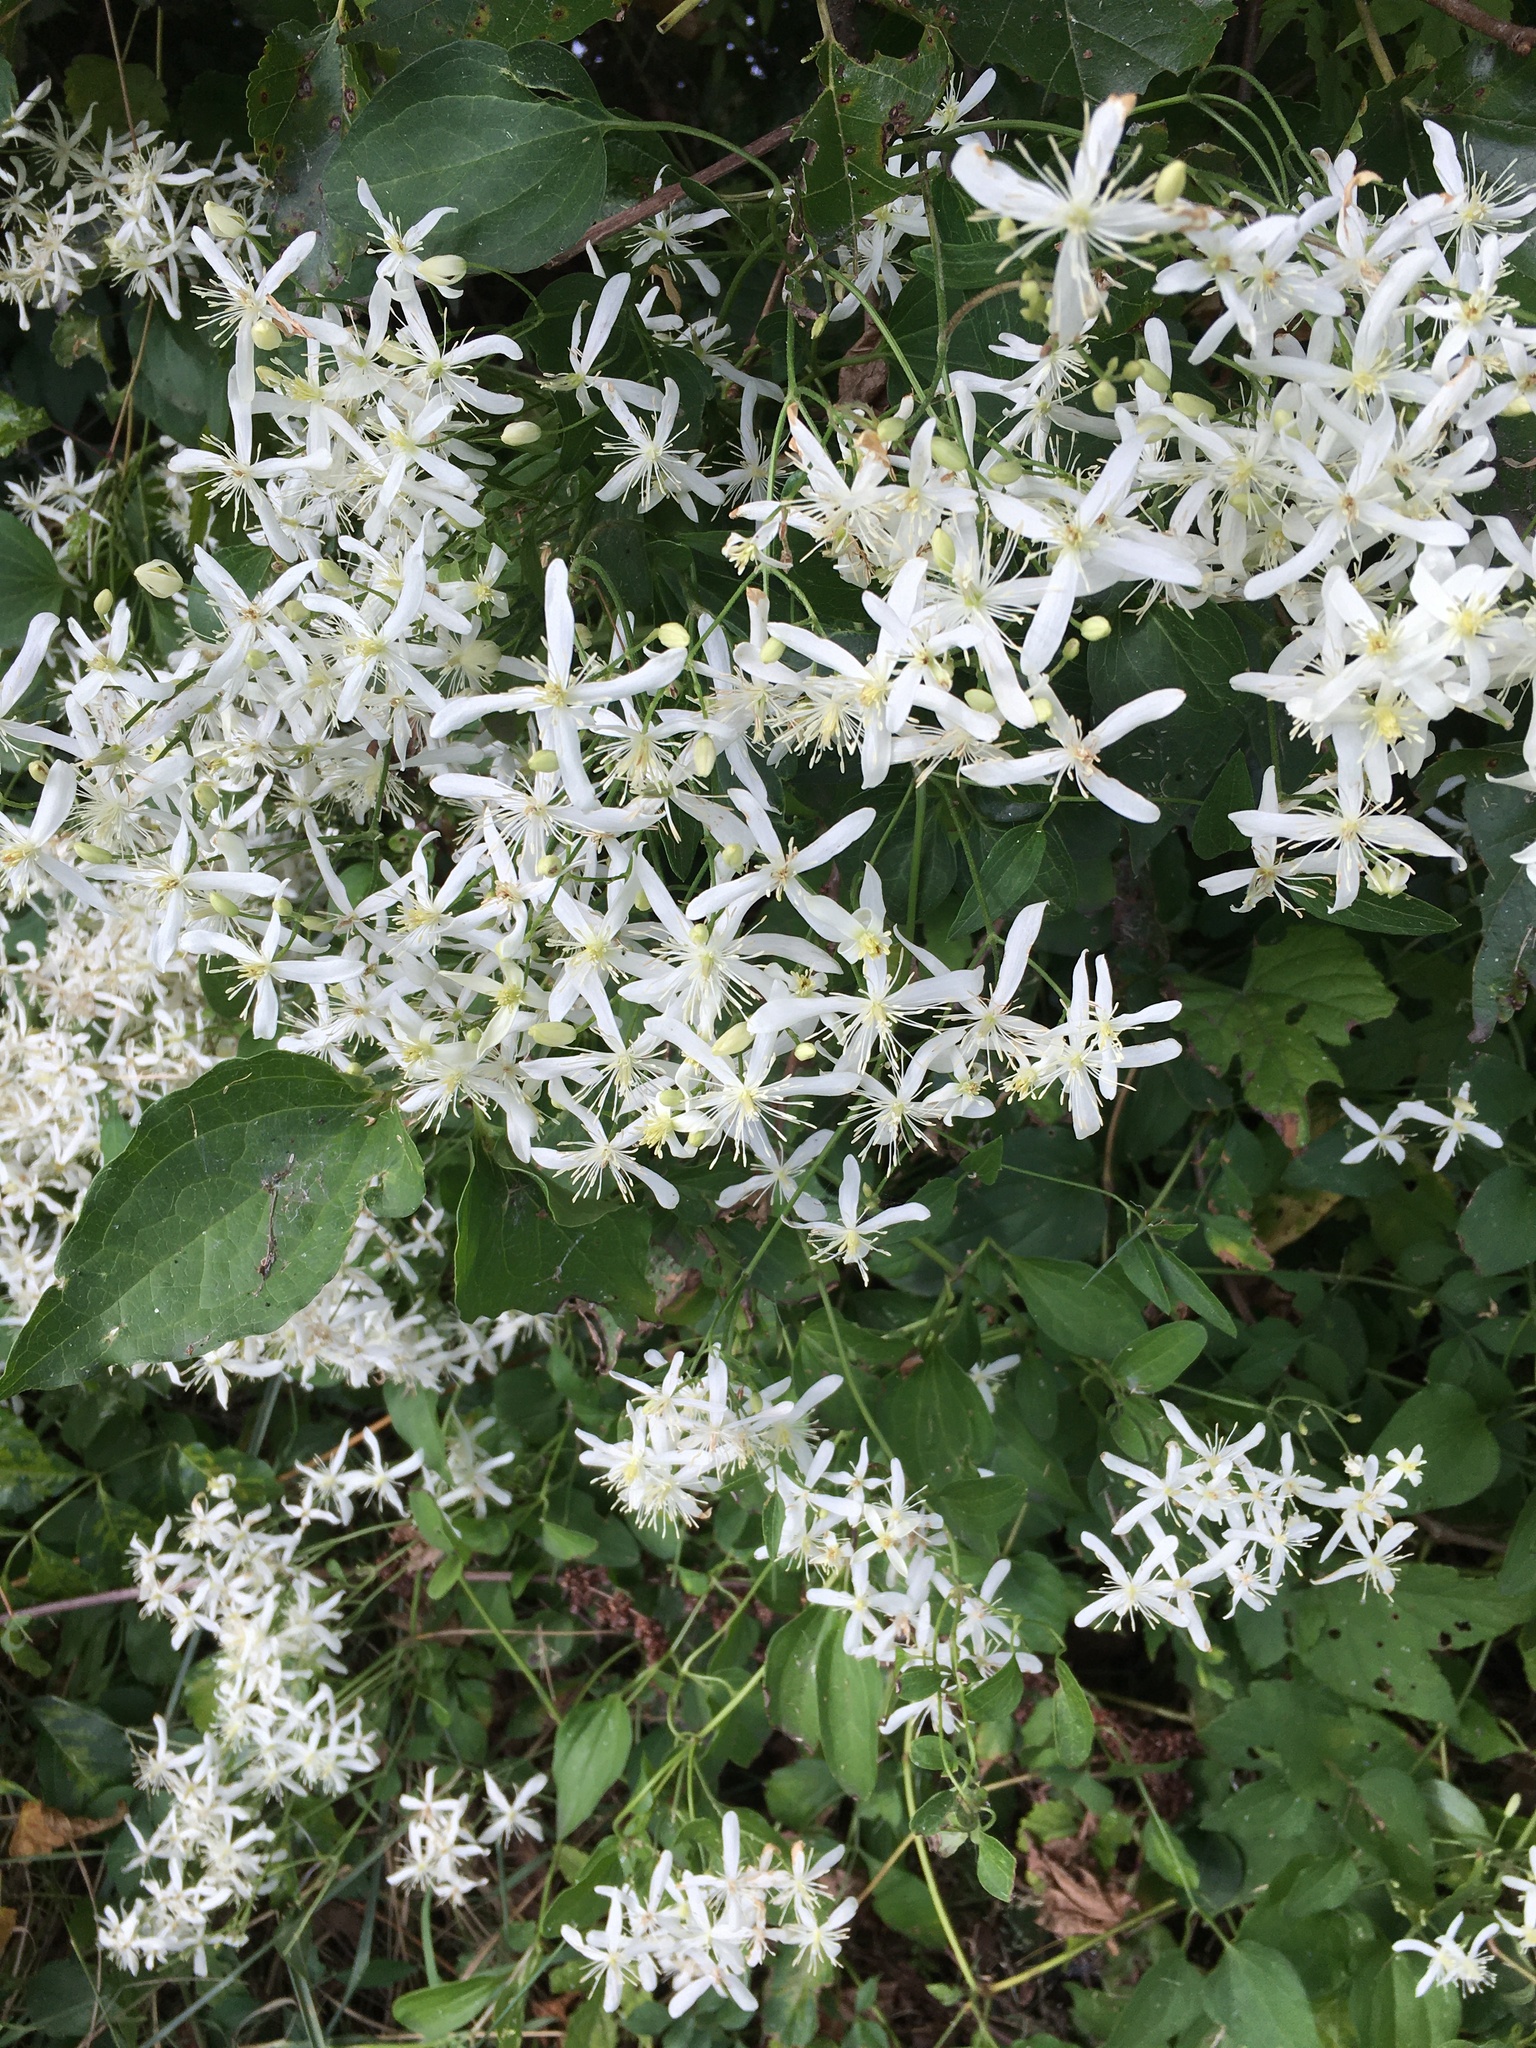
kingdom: Plantae
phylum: Tracheophyta
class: Magnoliopsida
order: Ranunculales
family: Ranunculaceae
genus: Clematis
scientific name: Clematis terniflora
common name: Sweet autumn clematis
